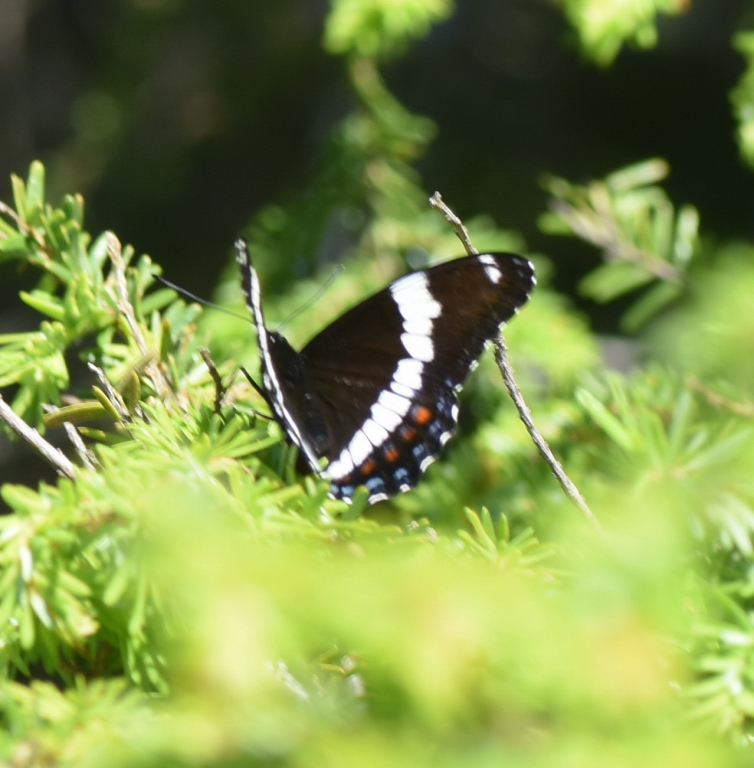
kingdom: Animalia
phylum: Arthropoda
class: Insecta
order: Lepidoptera
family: Nymphalidae
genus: Limenitis
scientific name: Limenitis arthemis
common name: Red-spotted admiral
